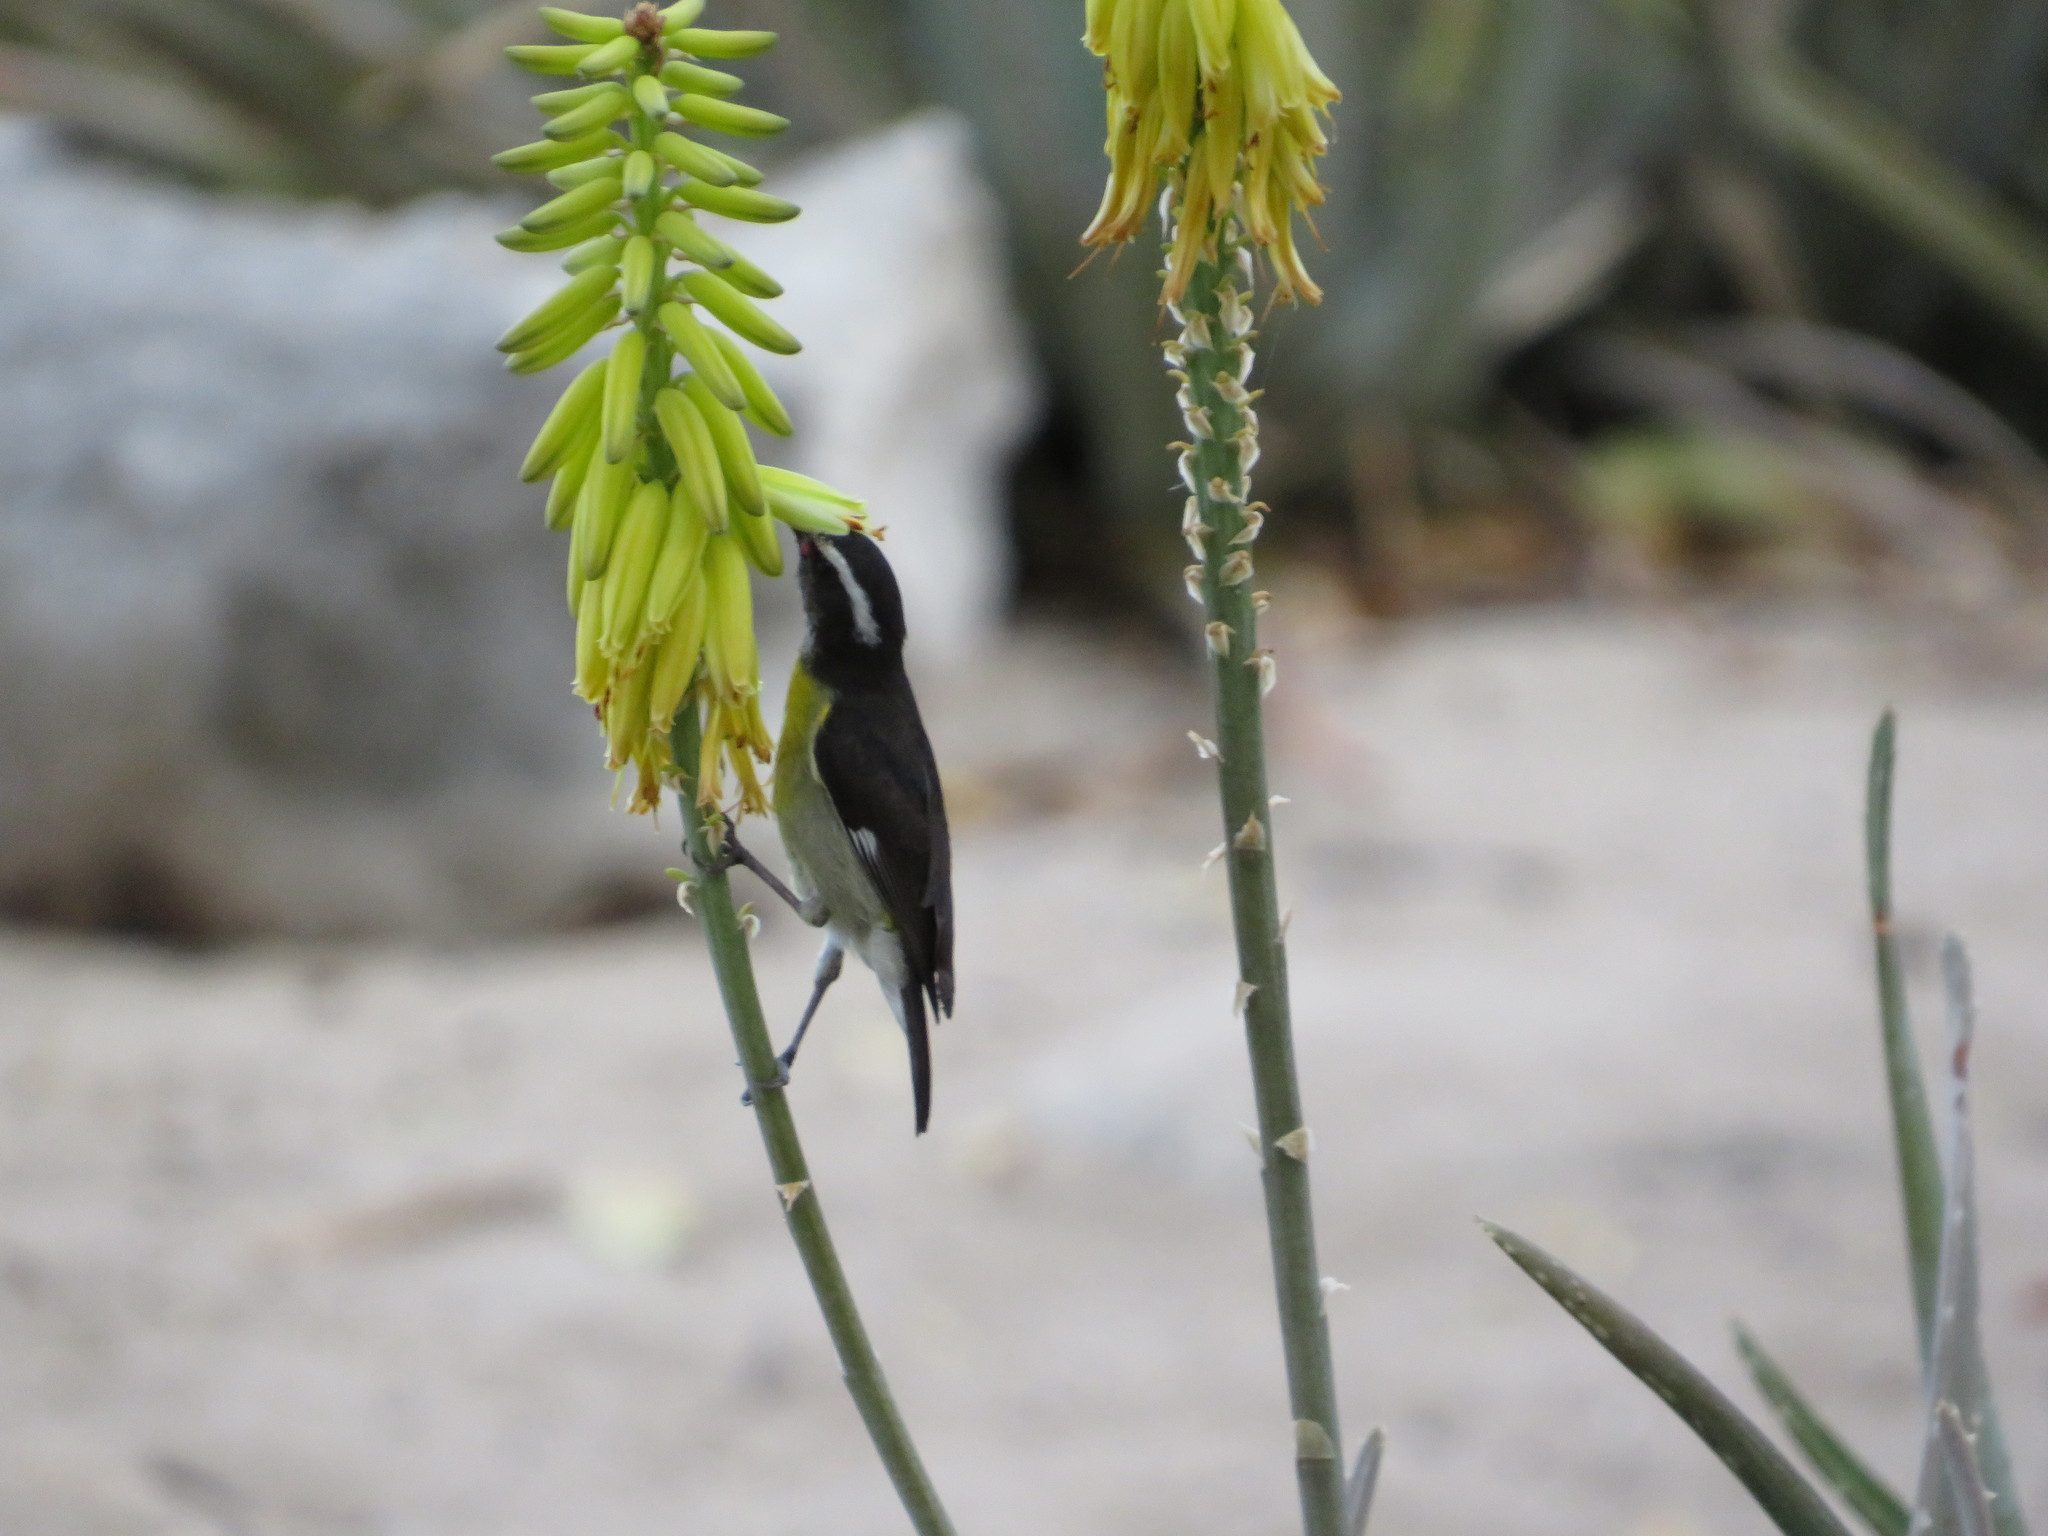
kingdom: Animalia
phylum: Chordata
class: Aves
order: Passeriformes
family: Thraupidae
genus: Coereba
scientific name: Coereba flaveola
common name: Bananaquit
